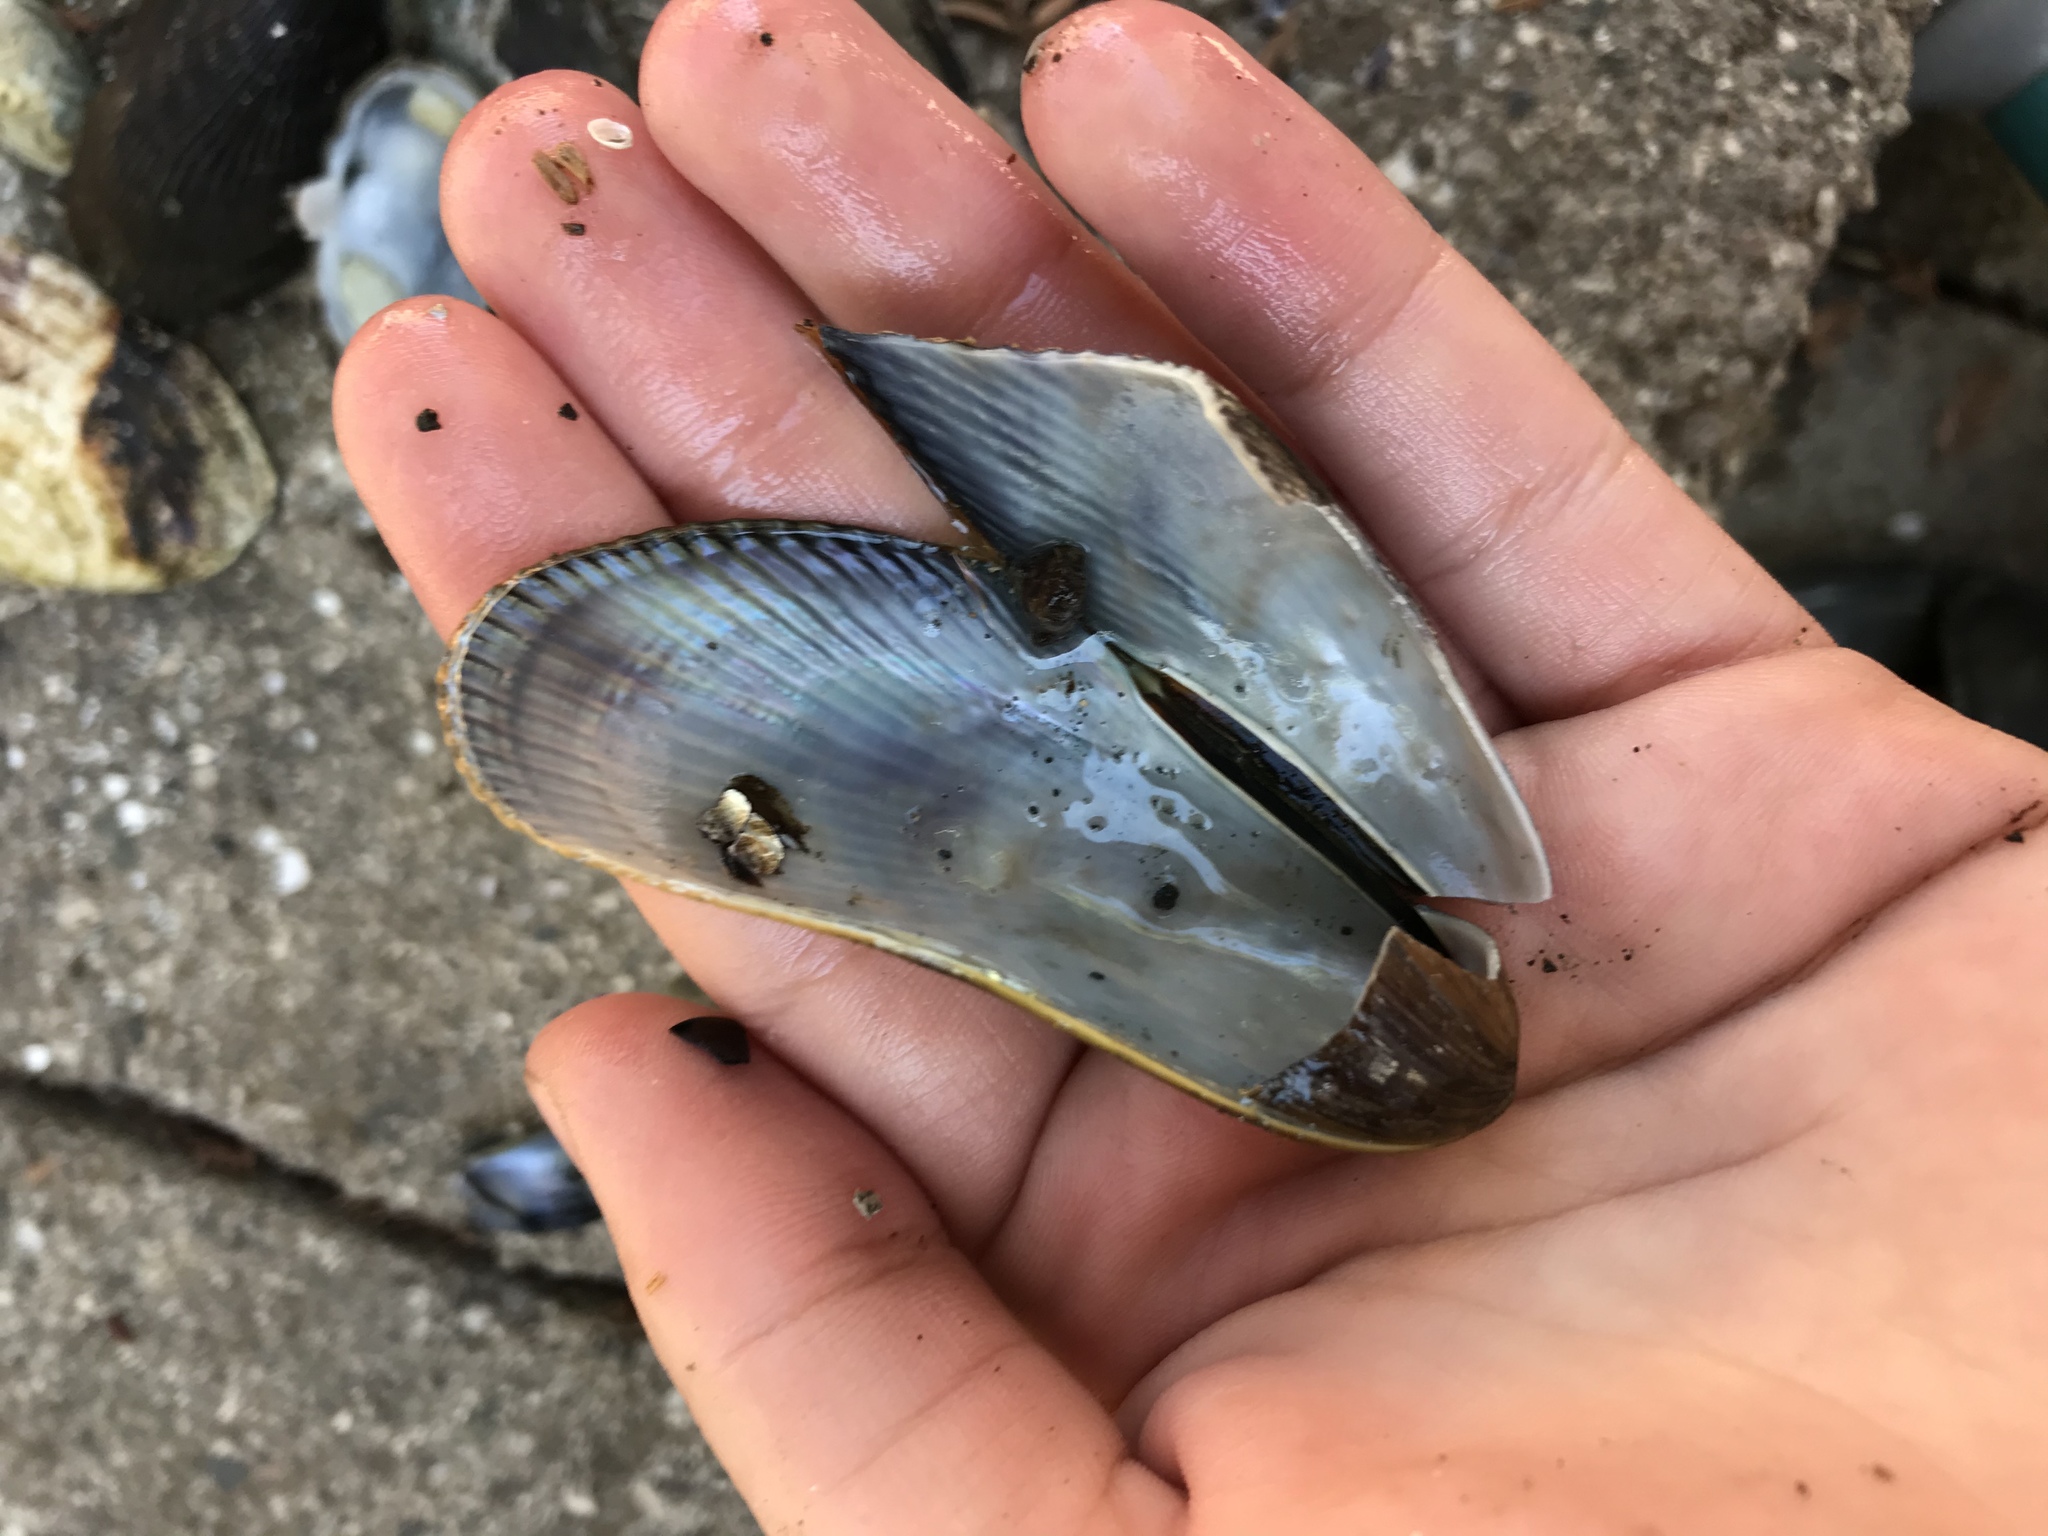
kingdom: Animalia
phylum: Mollusca
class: Bivalvia
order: Mytilida
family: Mytilidae
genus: Geukensia
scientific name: Geukensia demissa
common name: Ribbed mussel
